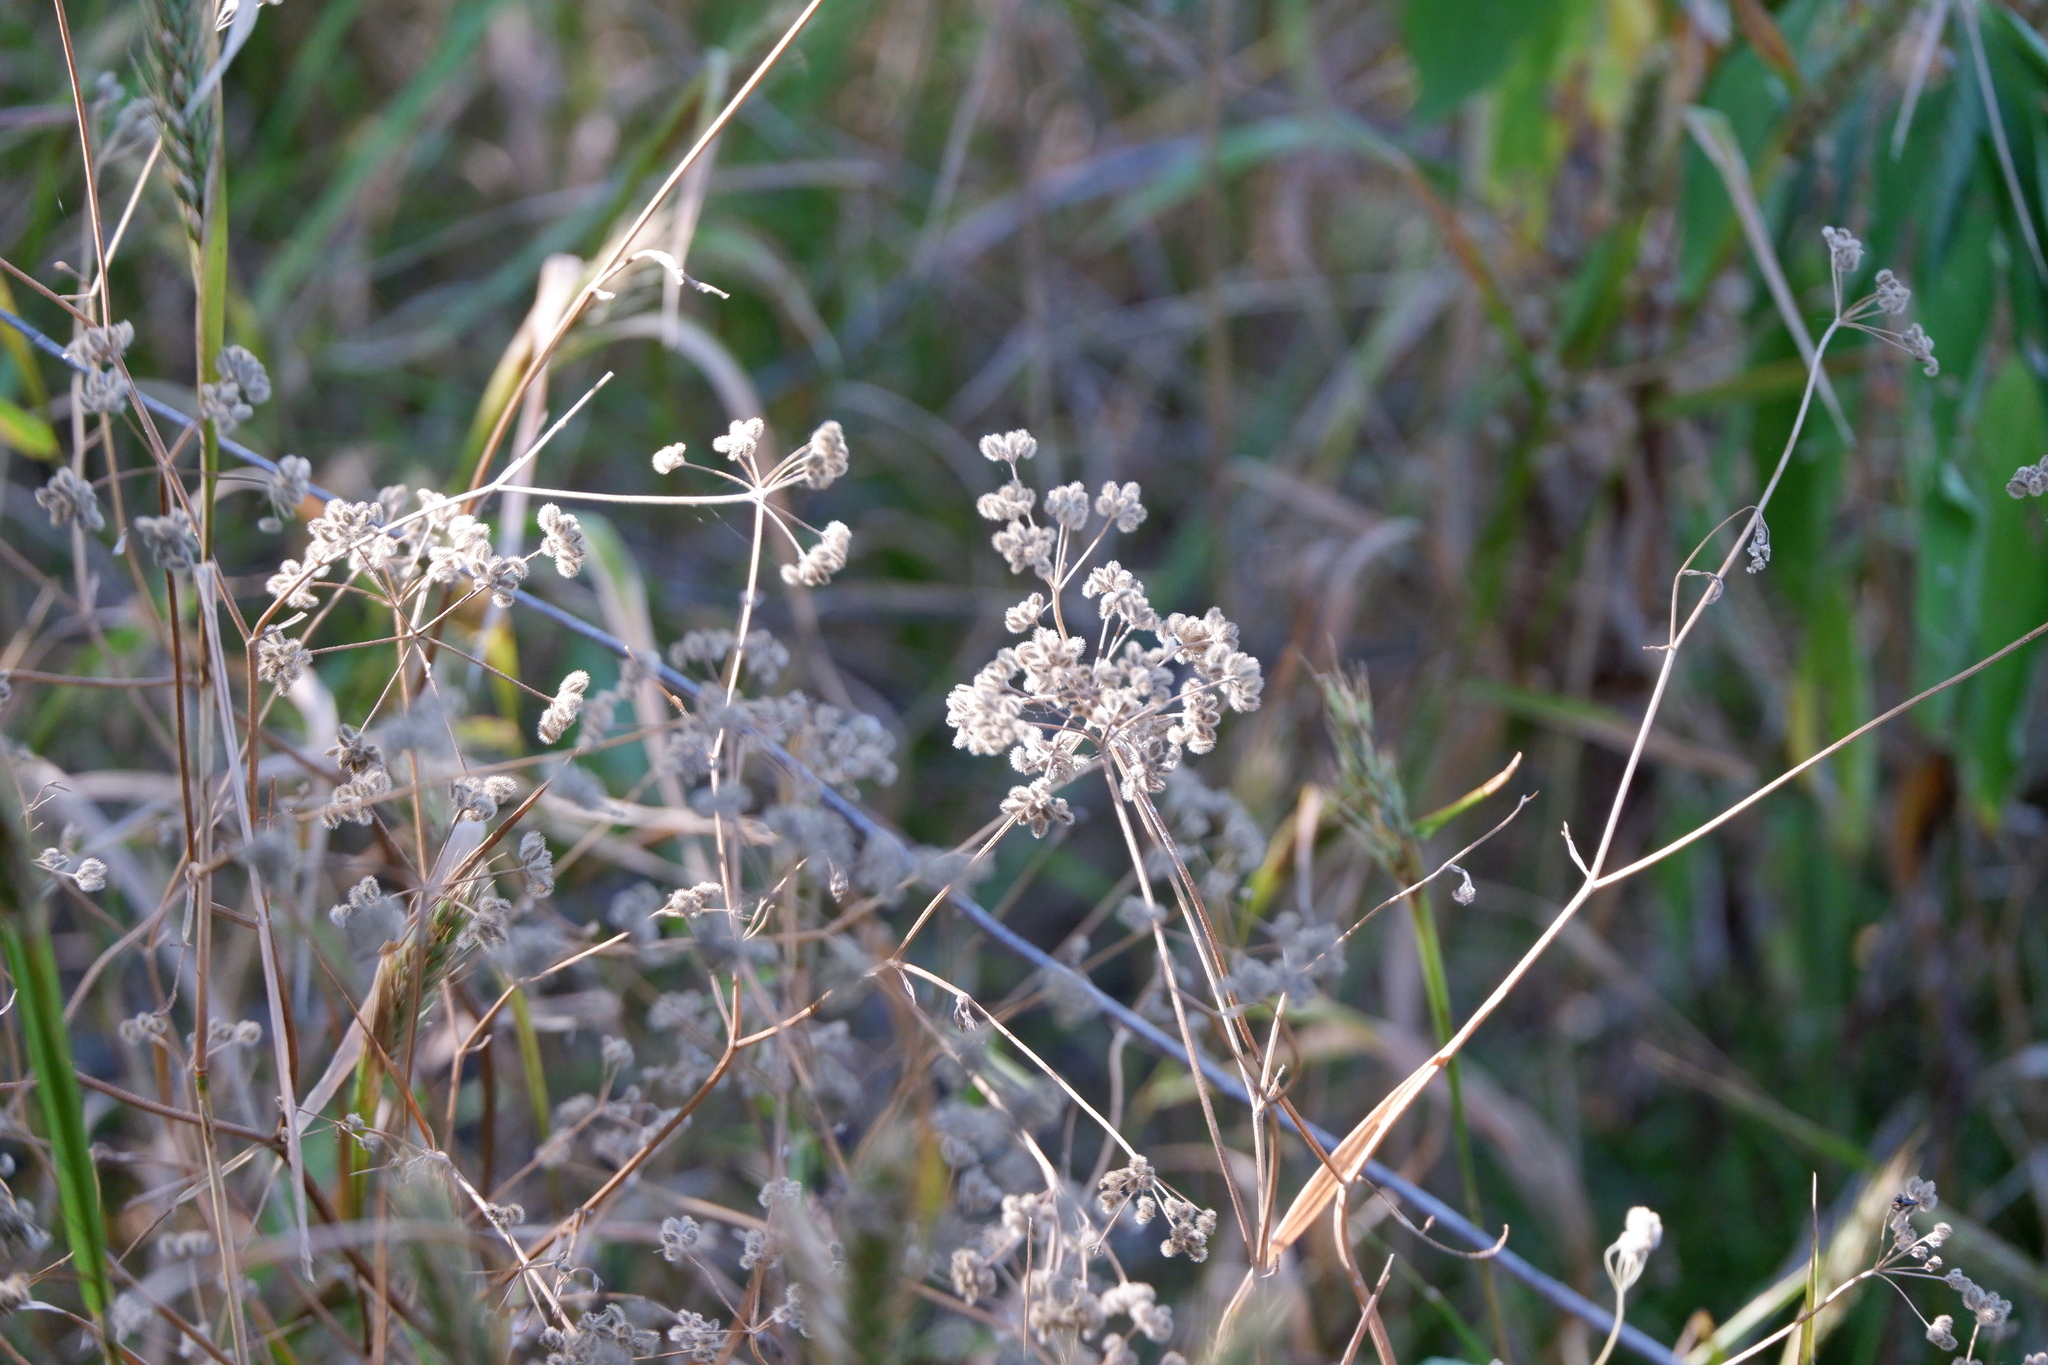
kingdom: Plantae
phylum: Tracheophyta
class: Magnoliopsida
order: Apiales
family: Apiaceae
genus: Torilis
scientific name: Torilis arvensis
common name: Spreading hedge-parsley
